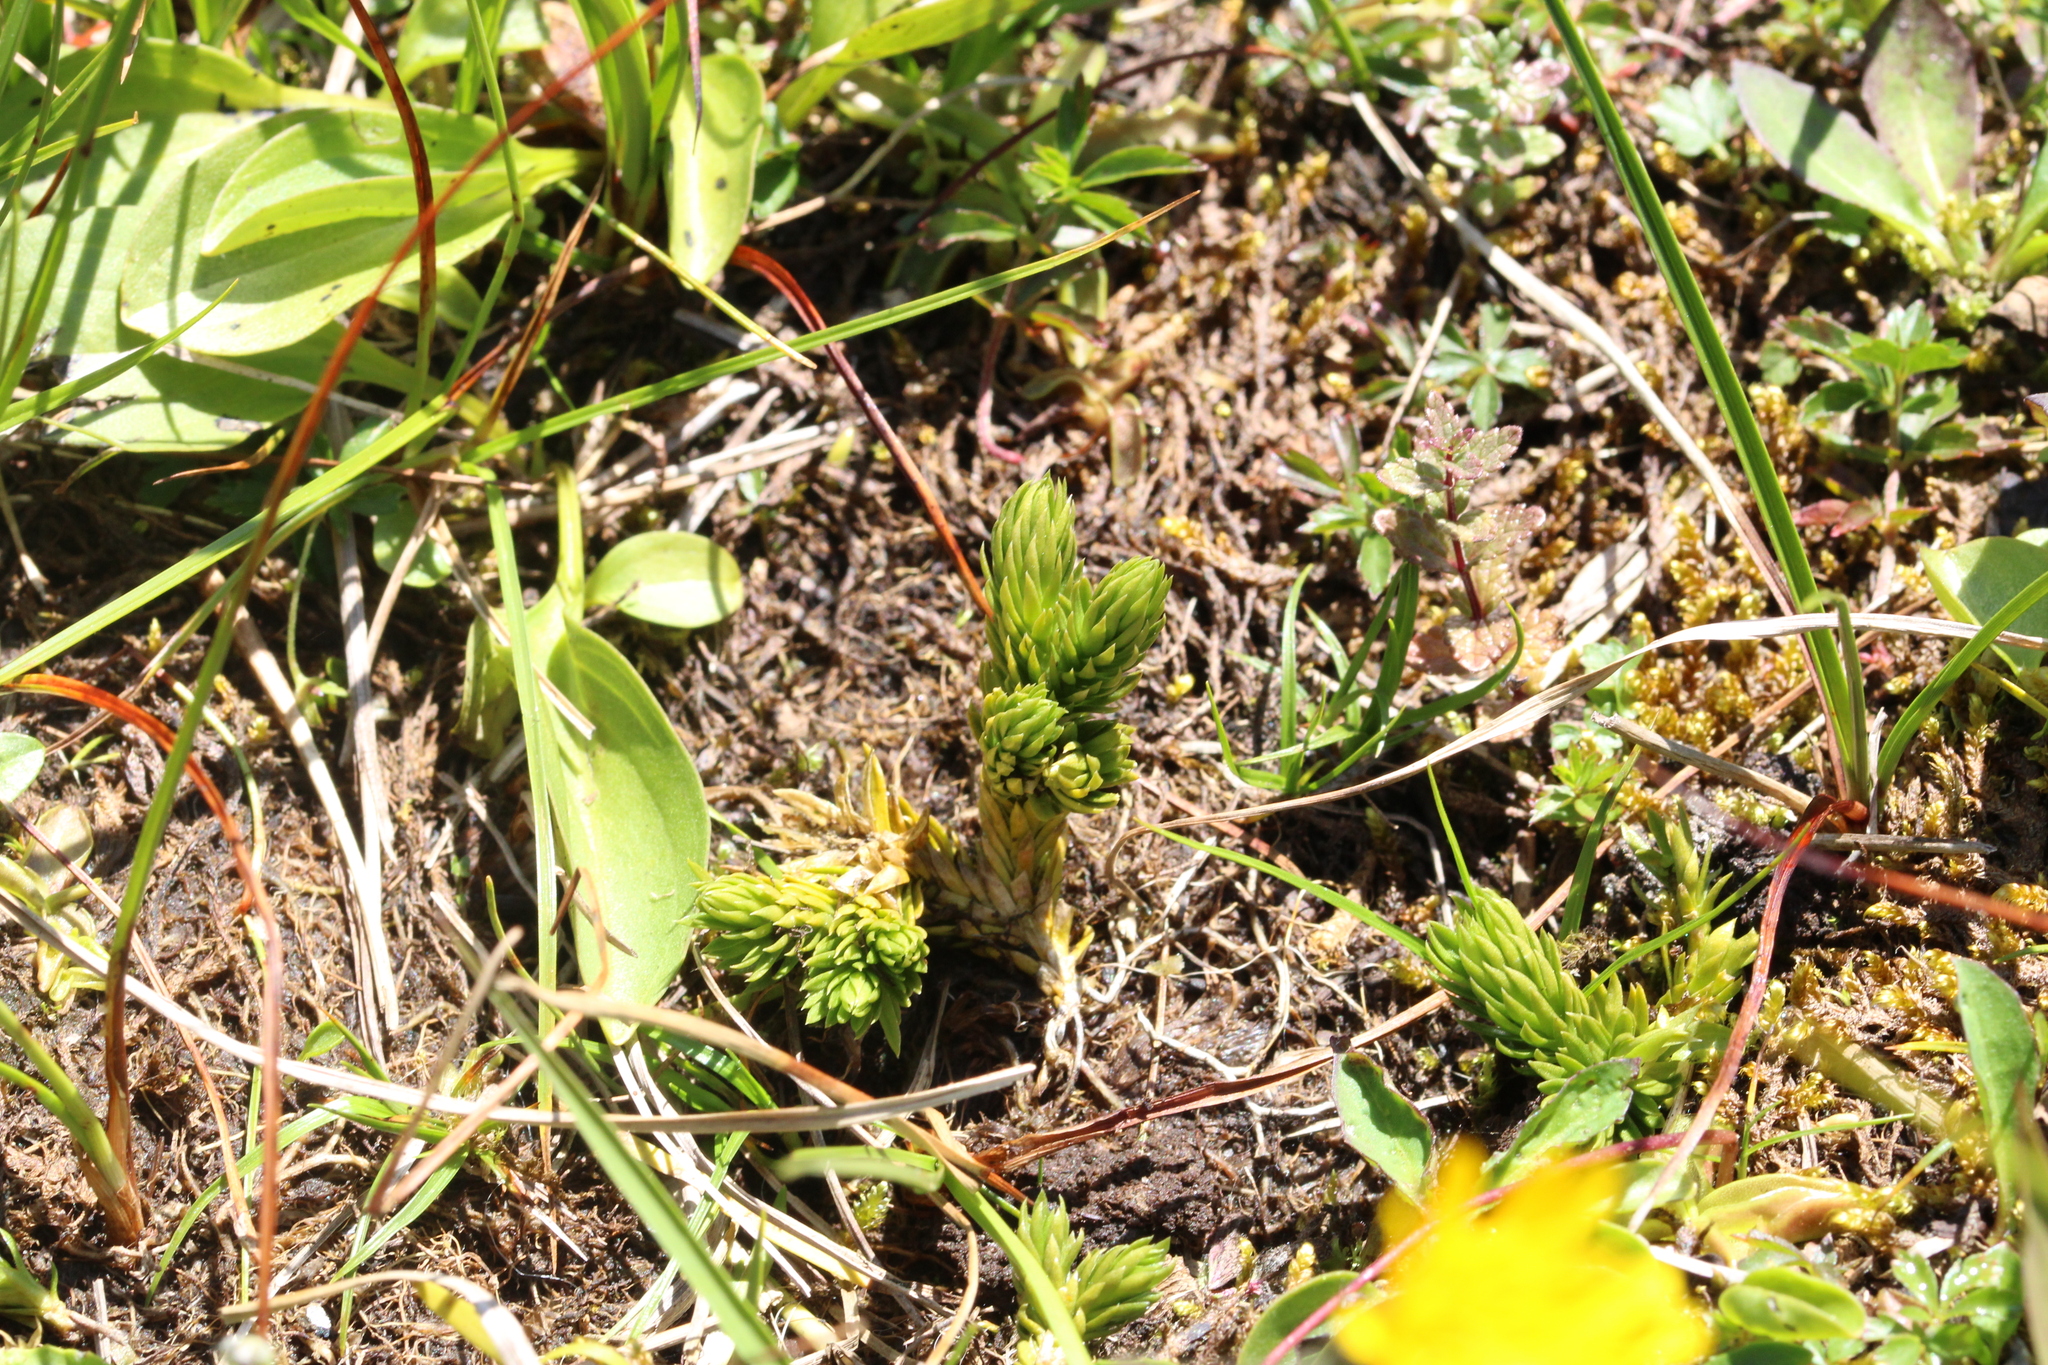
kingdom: Plantae
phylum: Tracheophyta
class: Lycopodiopsida
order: Lycopodiales
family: Lycopodiaceae
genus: Huperzia
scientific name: Huperzia selago
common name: Northern firmoss
